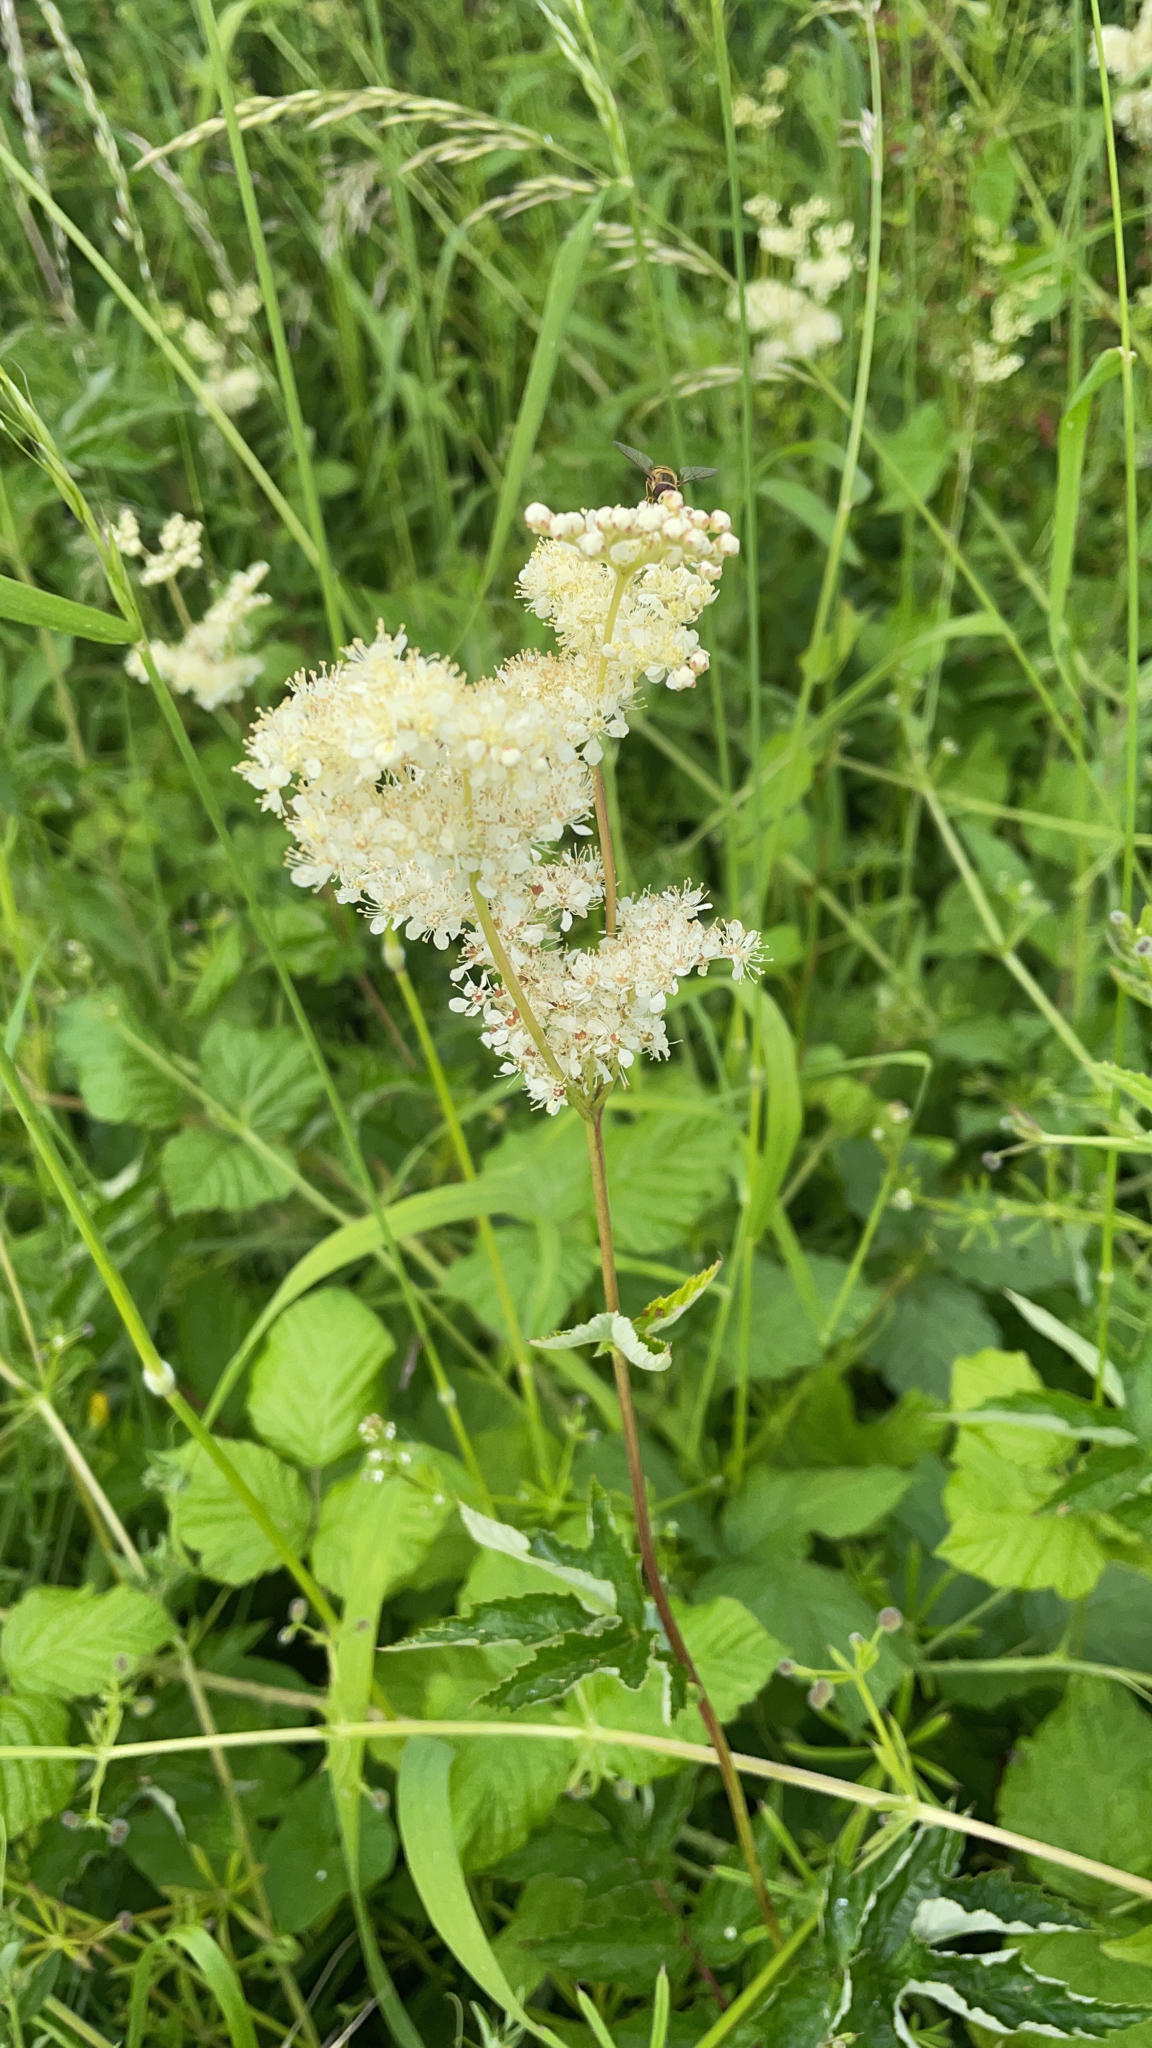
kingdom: Plantae
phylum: Tracheophyta
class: Magnoliopsida
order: Rosales
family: Rosaceae
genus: Filipendula
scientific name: Filipendula ulmaria
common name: Meadowsweet
